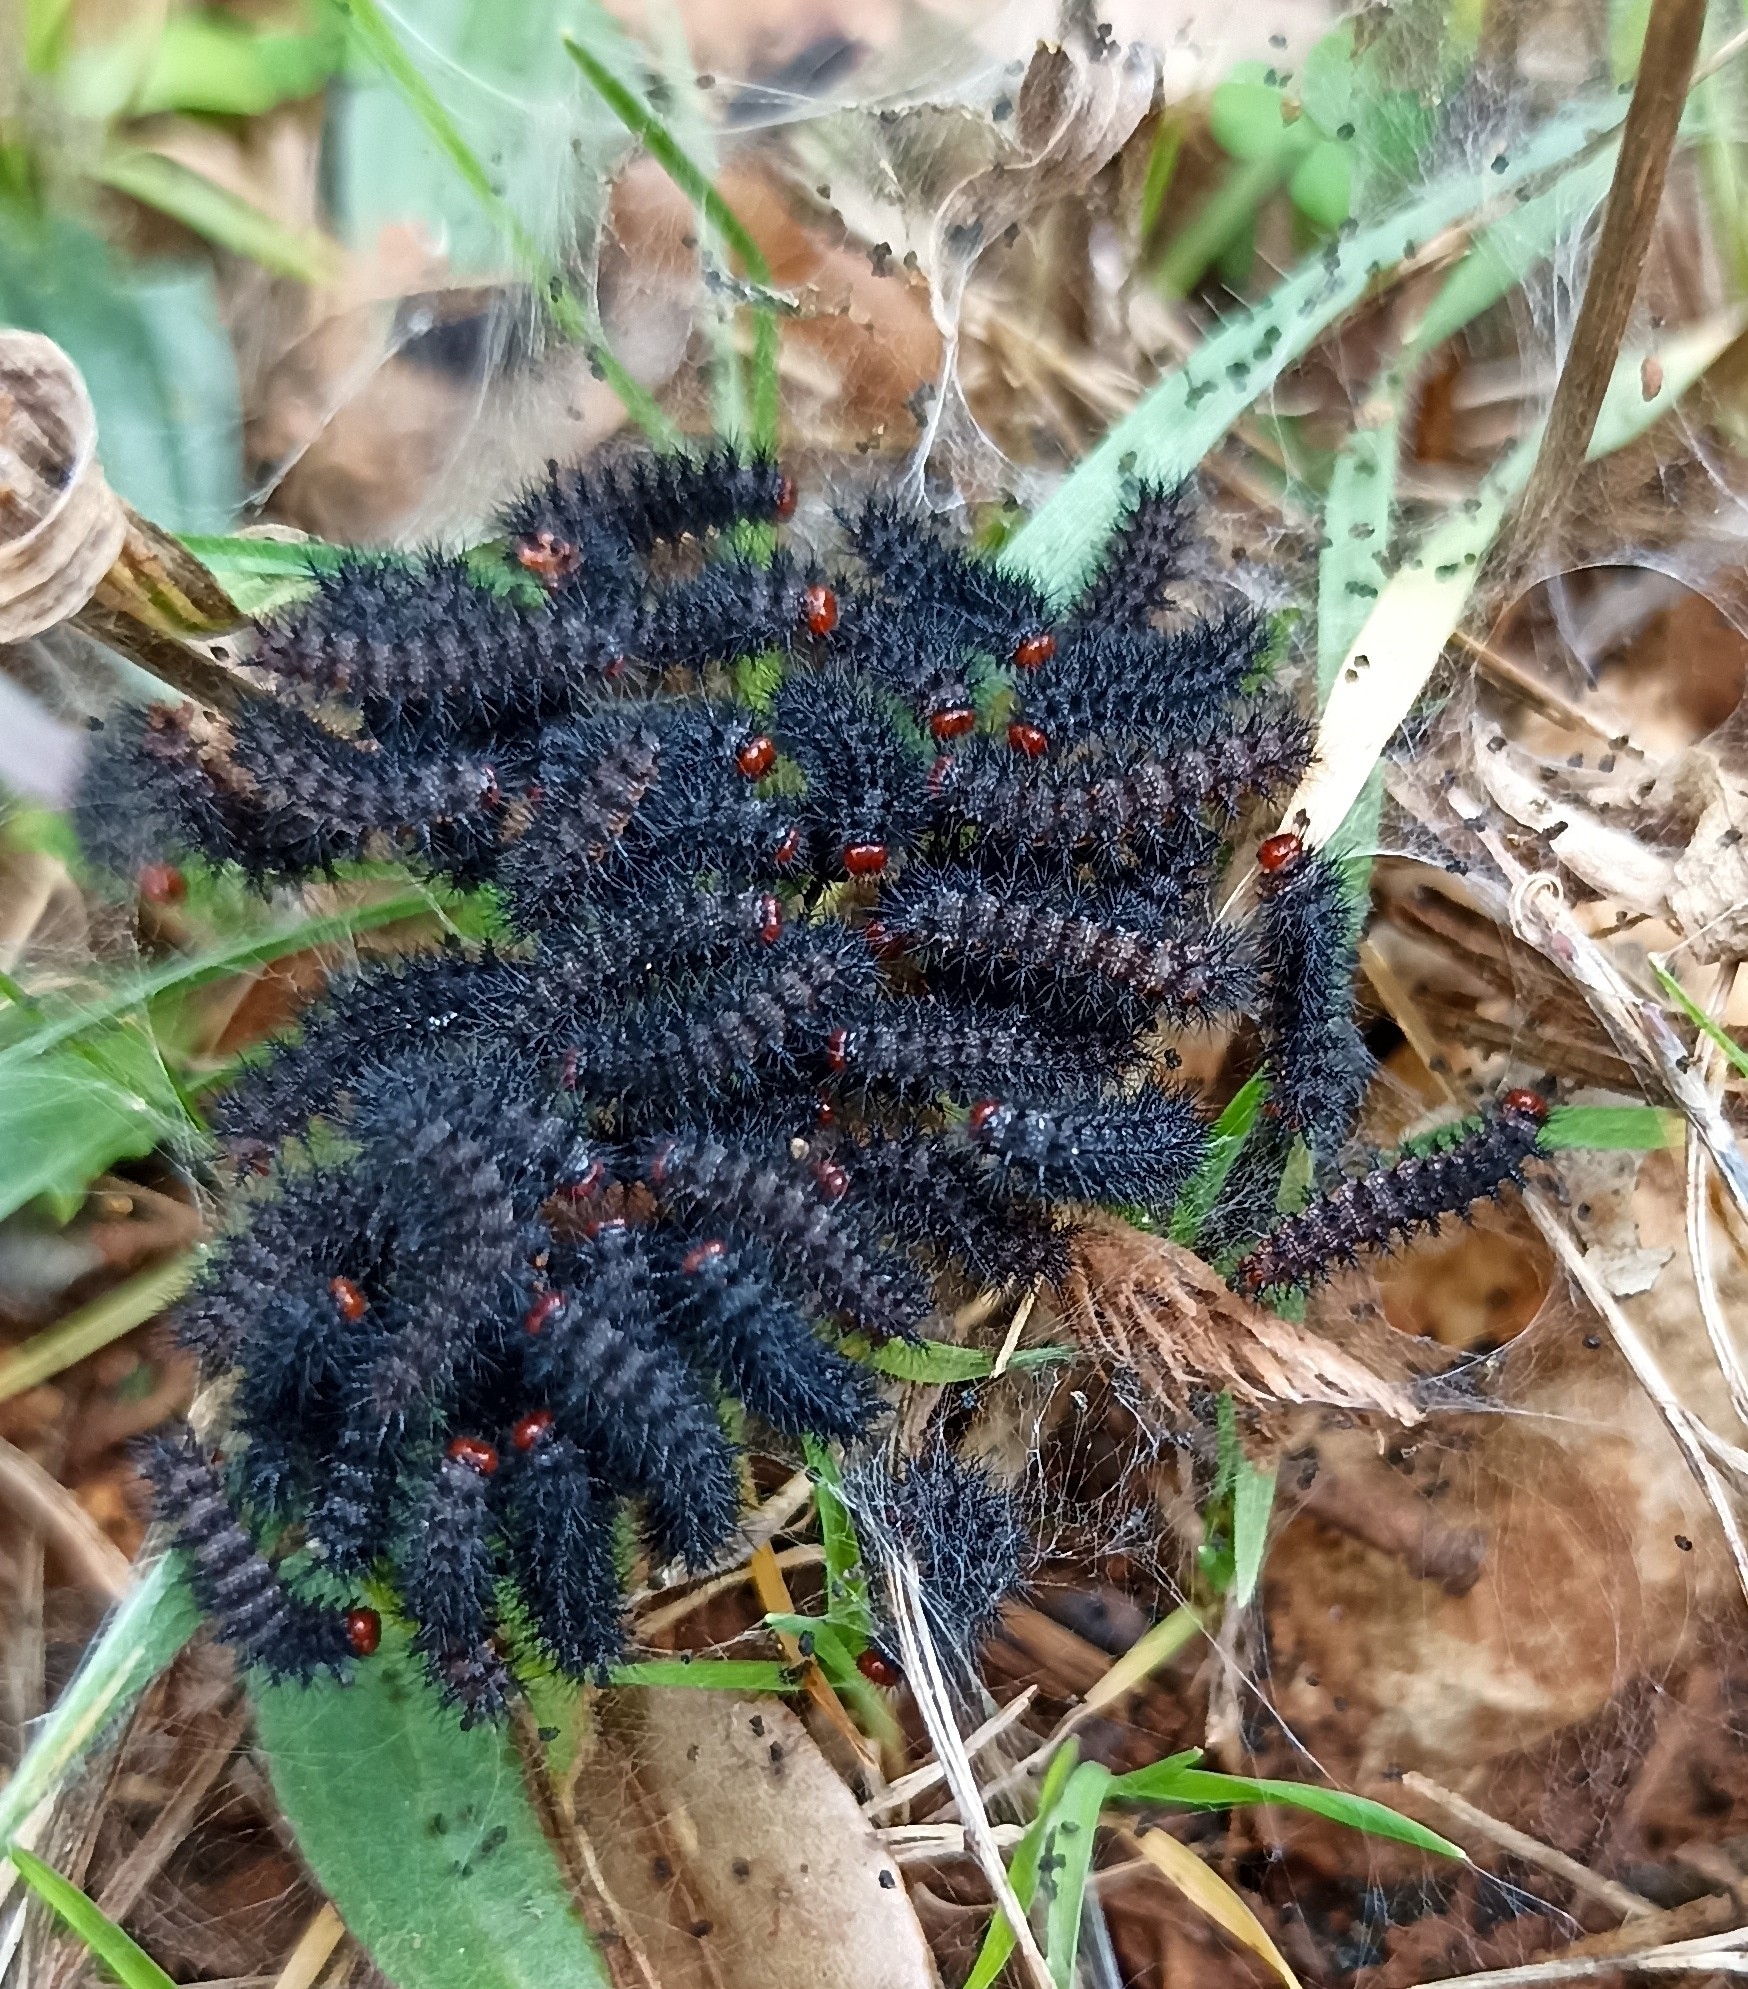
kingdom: Animalia
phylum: Arthropoda
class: Insecta
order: Lepidoptera
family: Nymphalidae
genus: Melitaea
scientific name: Melitaea cinxia
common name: Glanville fritillary
